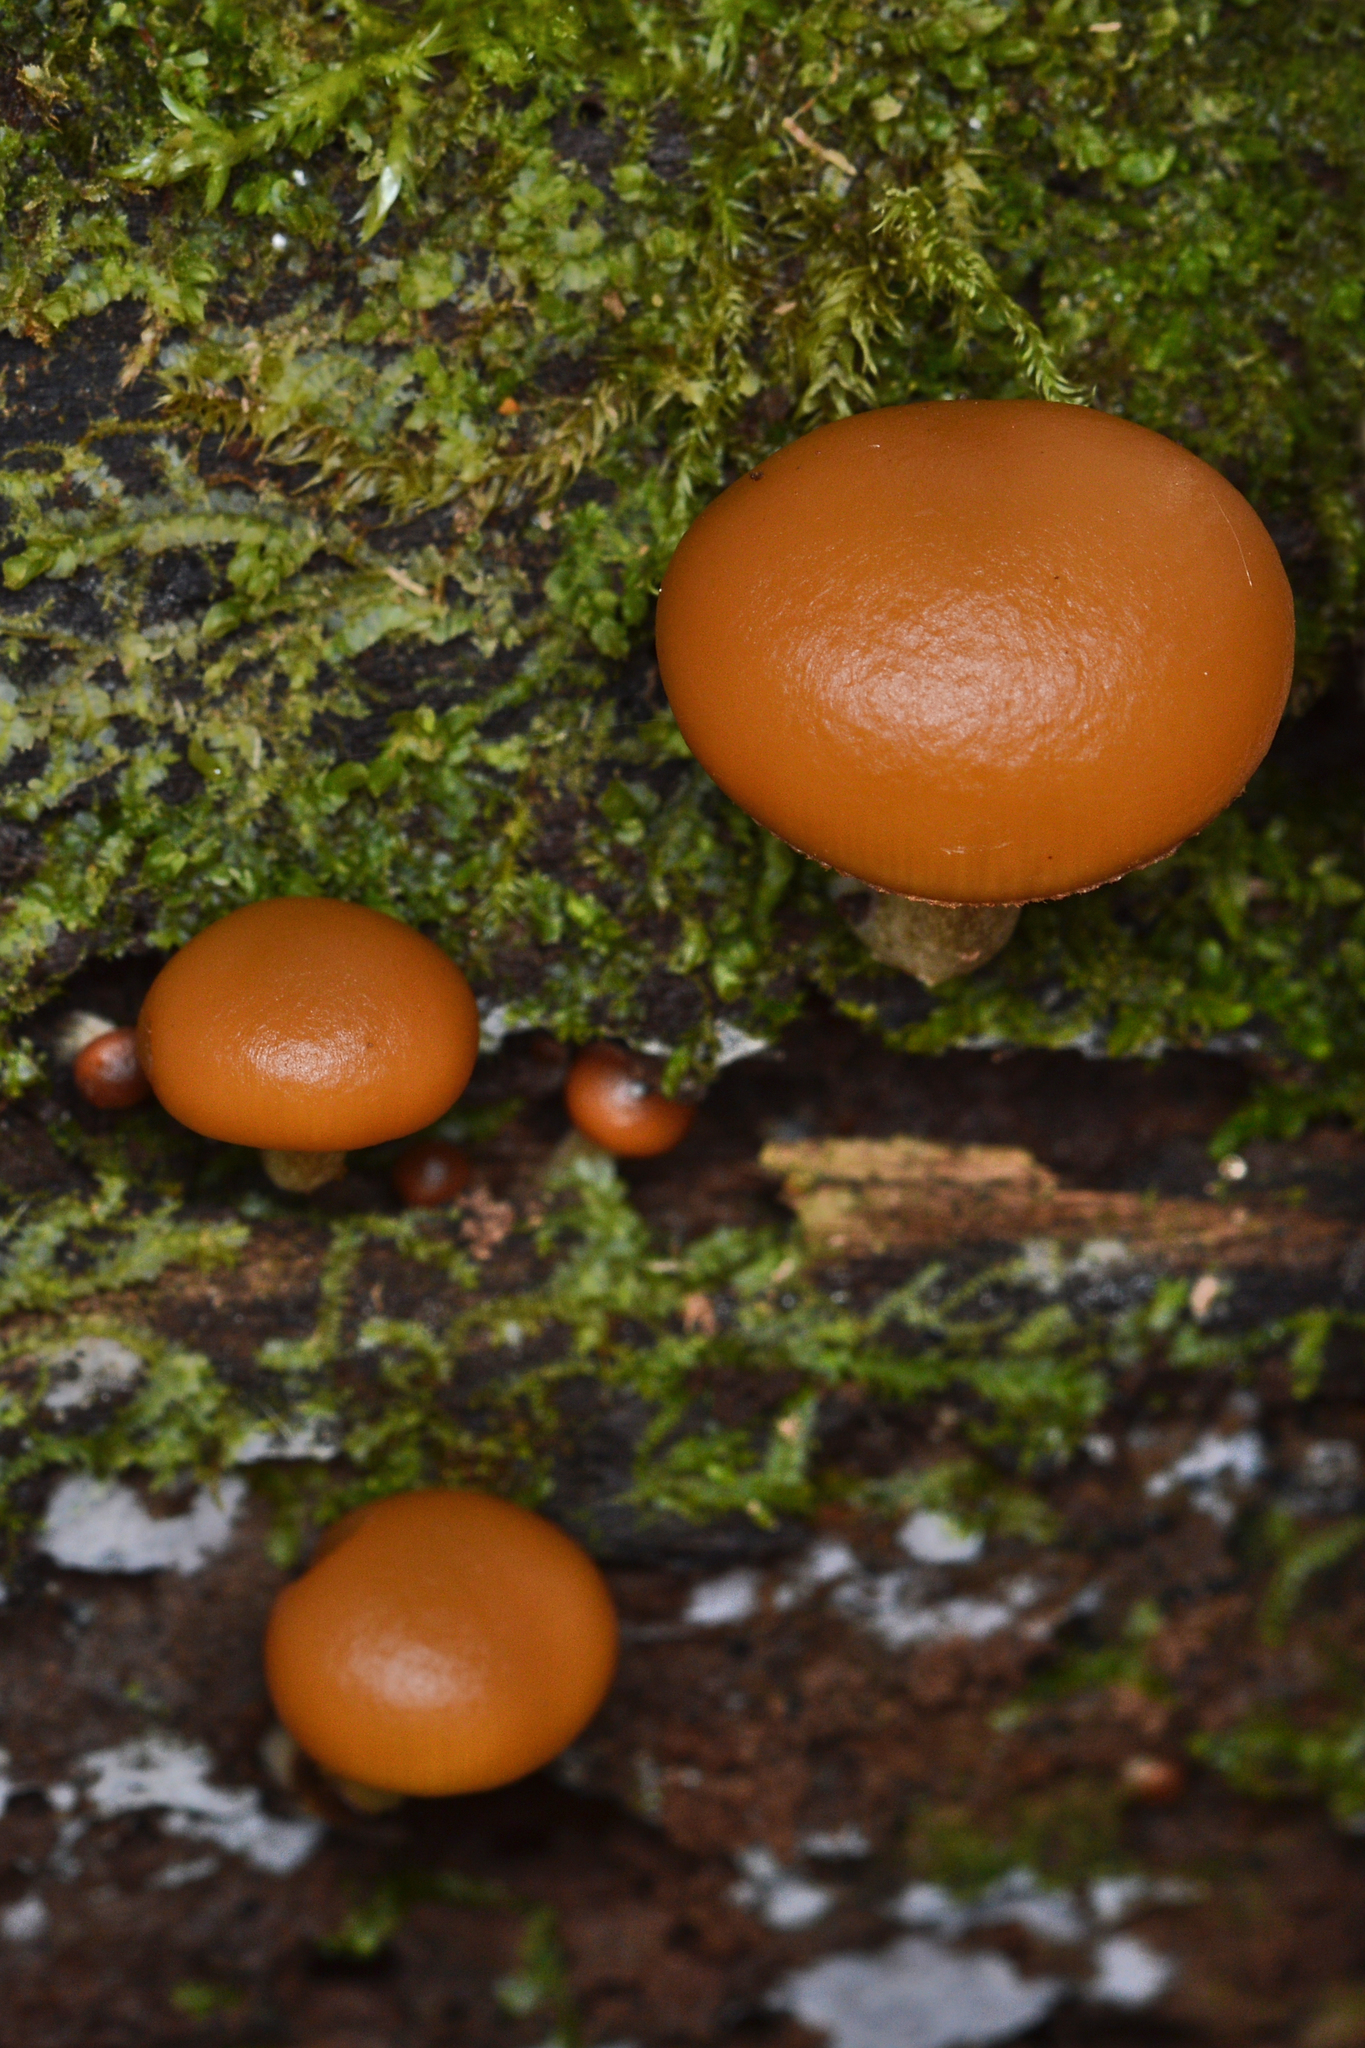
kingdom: Fungi
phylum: Basidiomycota
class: Agaricomycetes
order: Agaricales
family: Hymenogastraceae
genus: Galerina
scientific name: Galerina marginata
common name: Funeral bell
